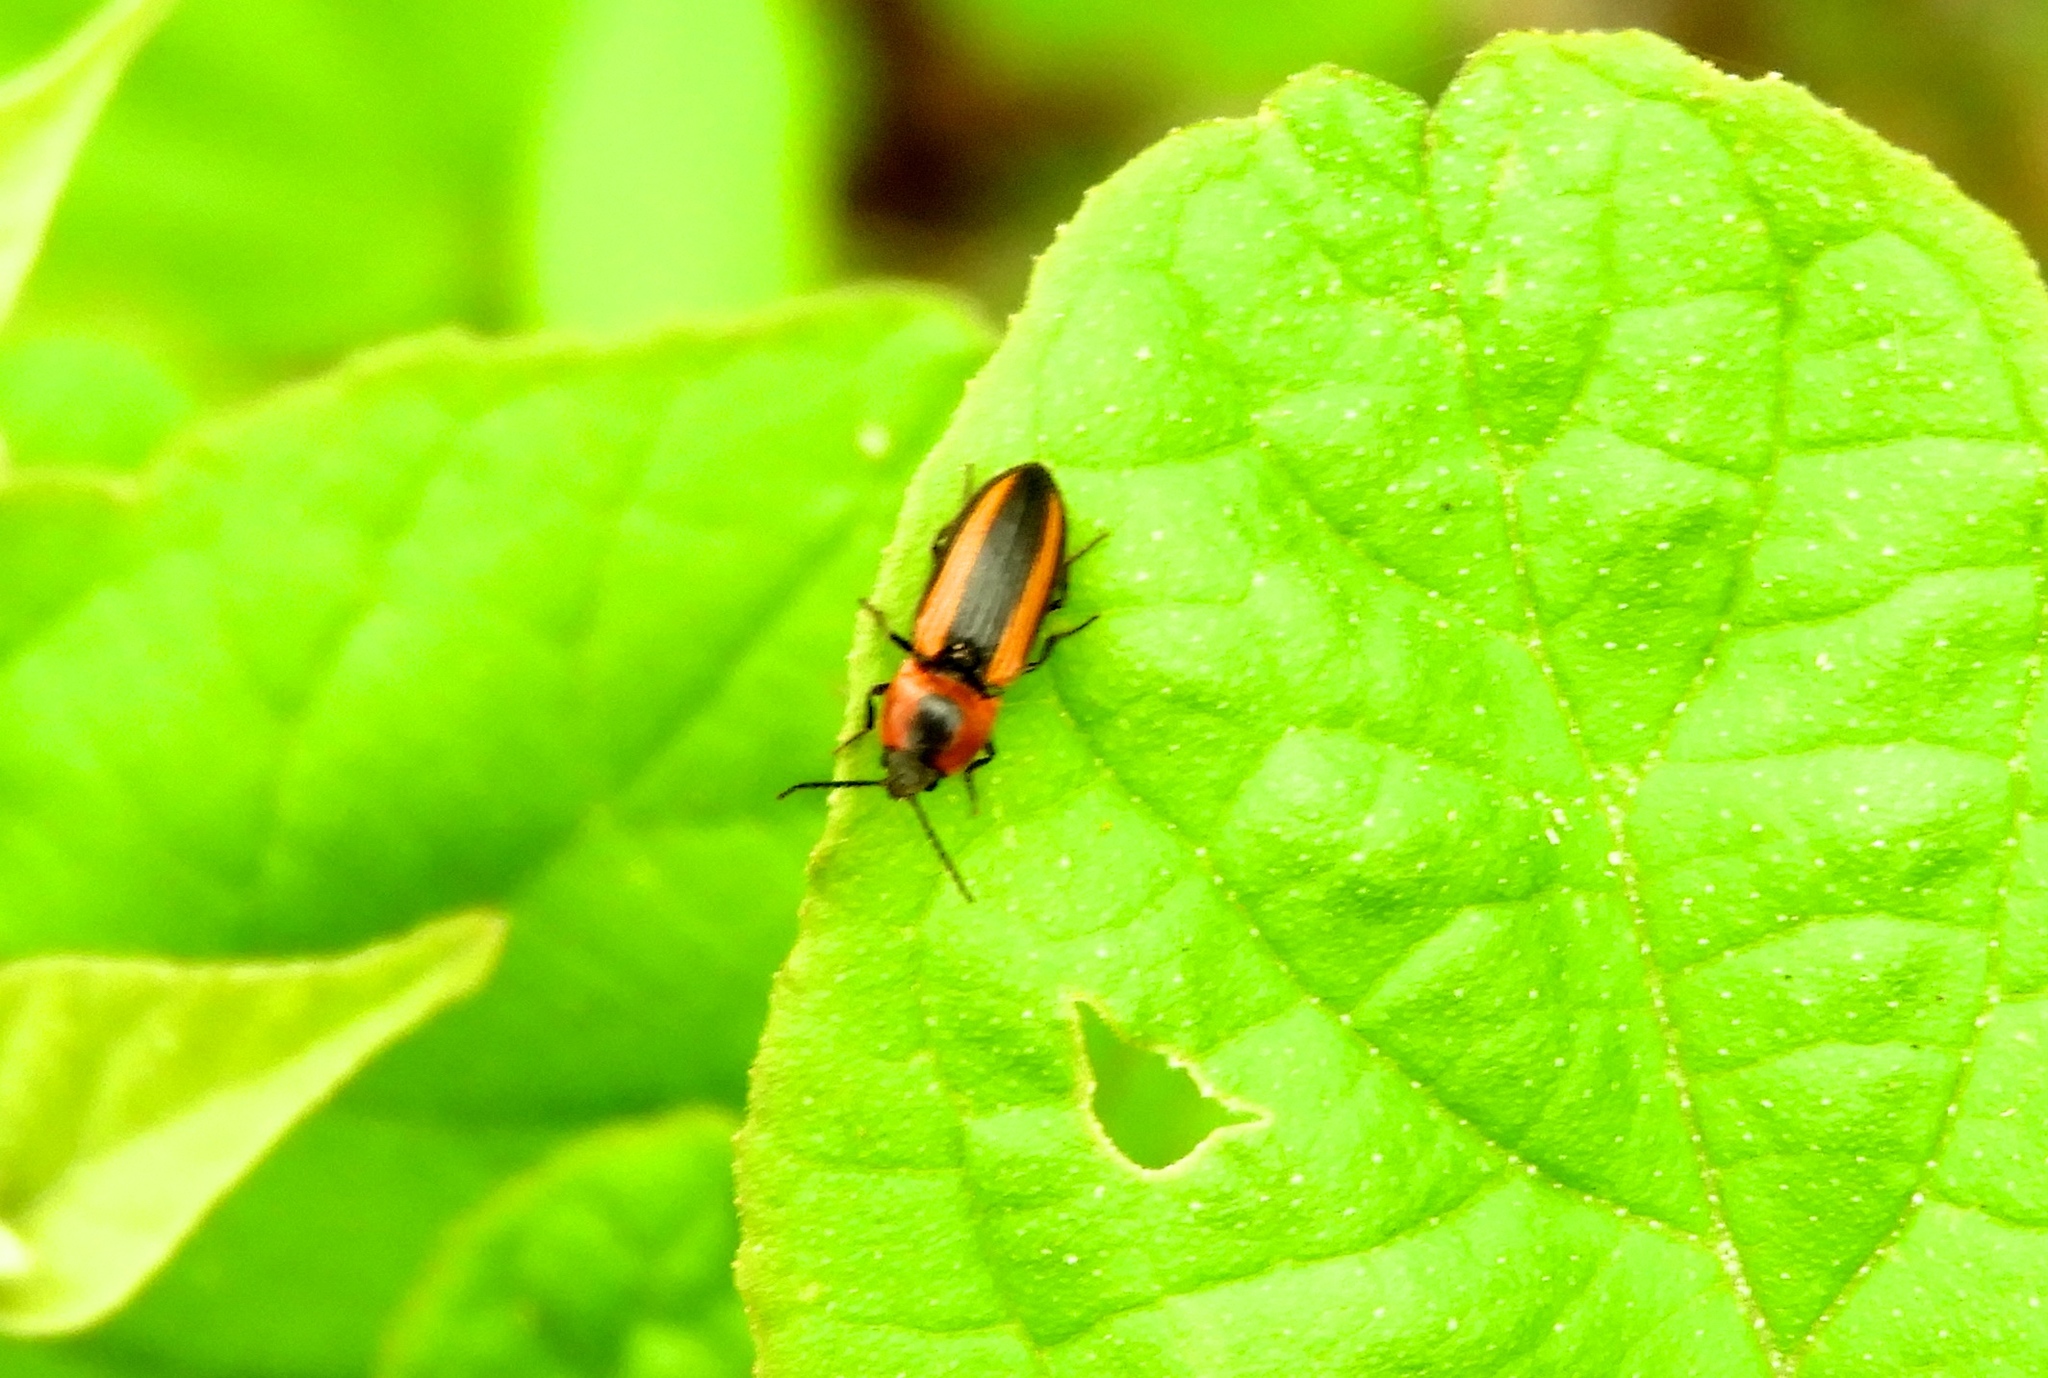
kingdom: Animalia
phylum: Arthropoda
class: Insecta
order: Coleoptera
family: Elateridae
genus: Cardiophorus
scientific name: Cardiophorus
